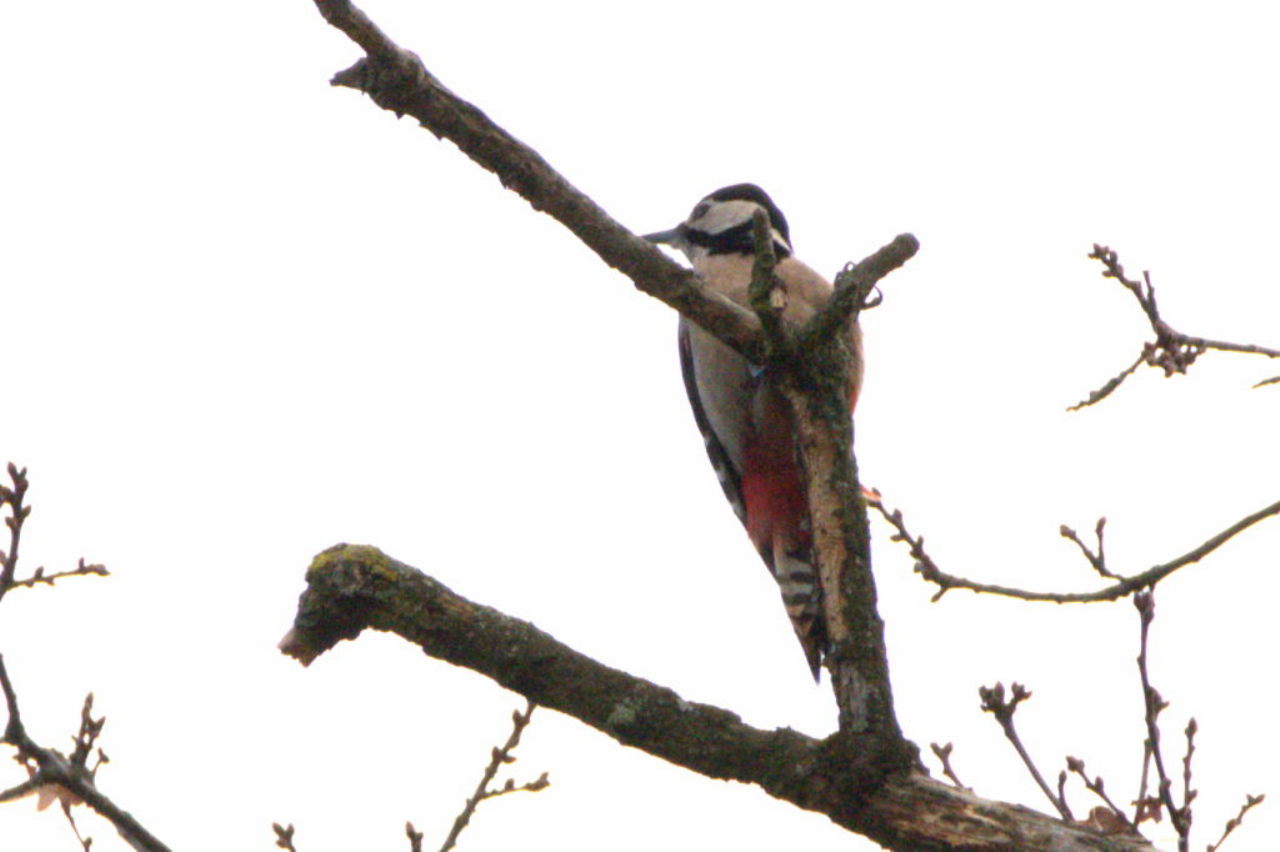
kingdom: Animalia
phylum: Chordata
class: Aves
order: Piciformes
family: Picidae
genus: Dendrocopos
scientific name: Dendrocopos major
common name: Great spotted woodpecker
